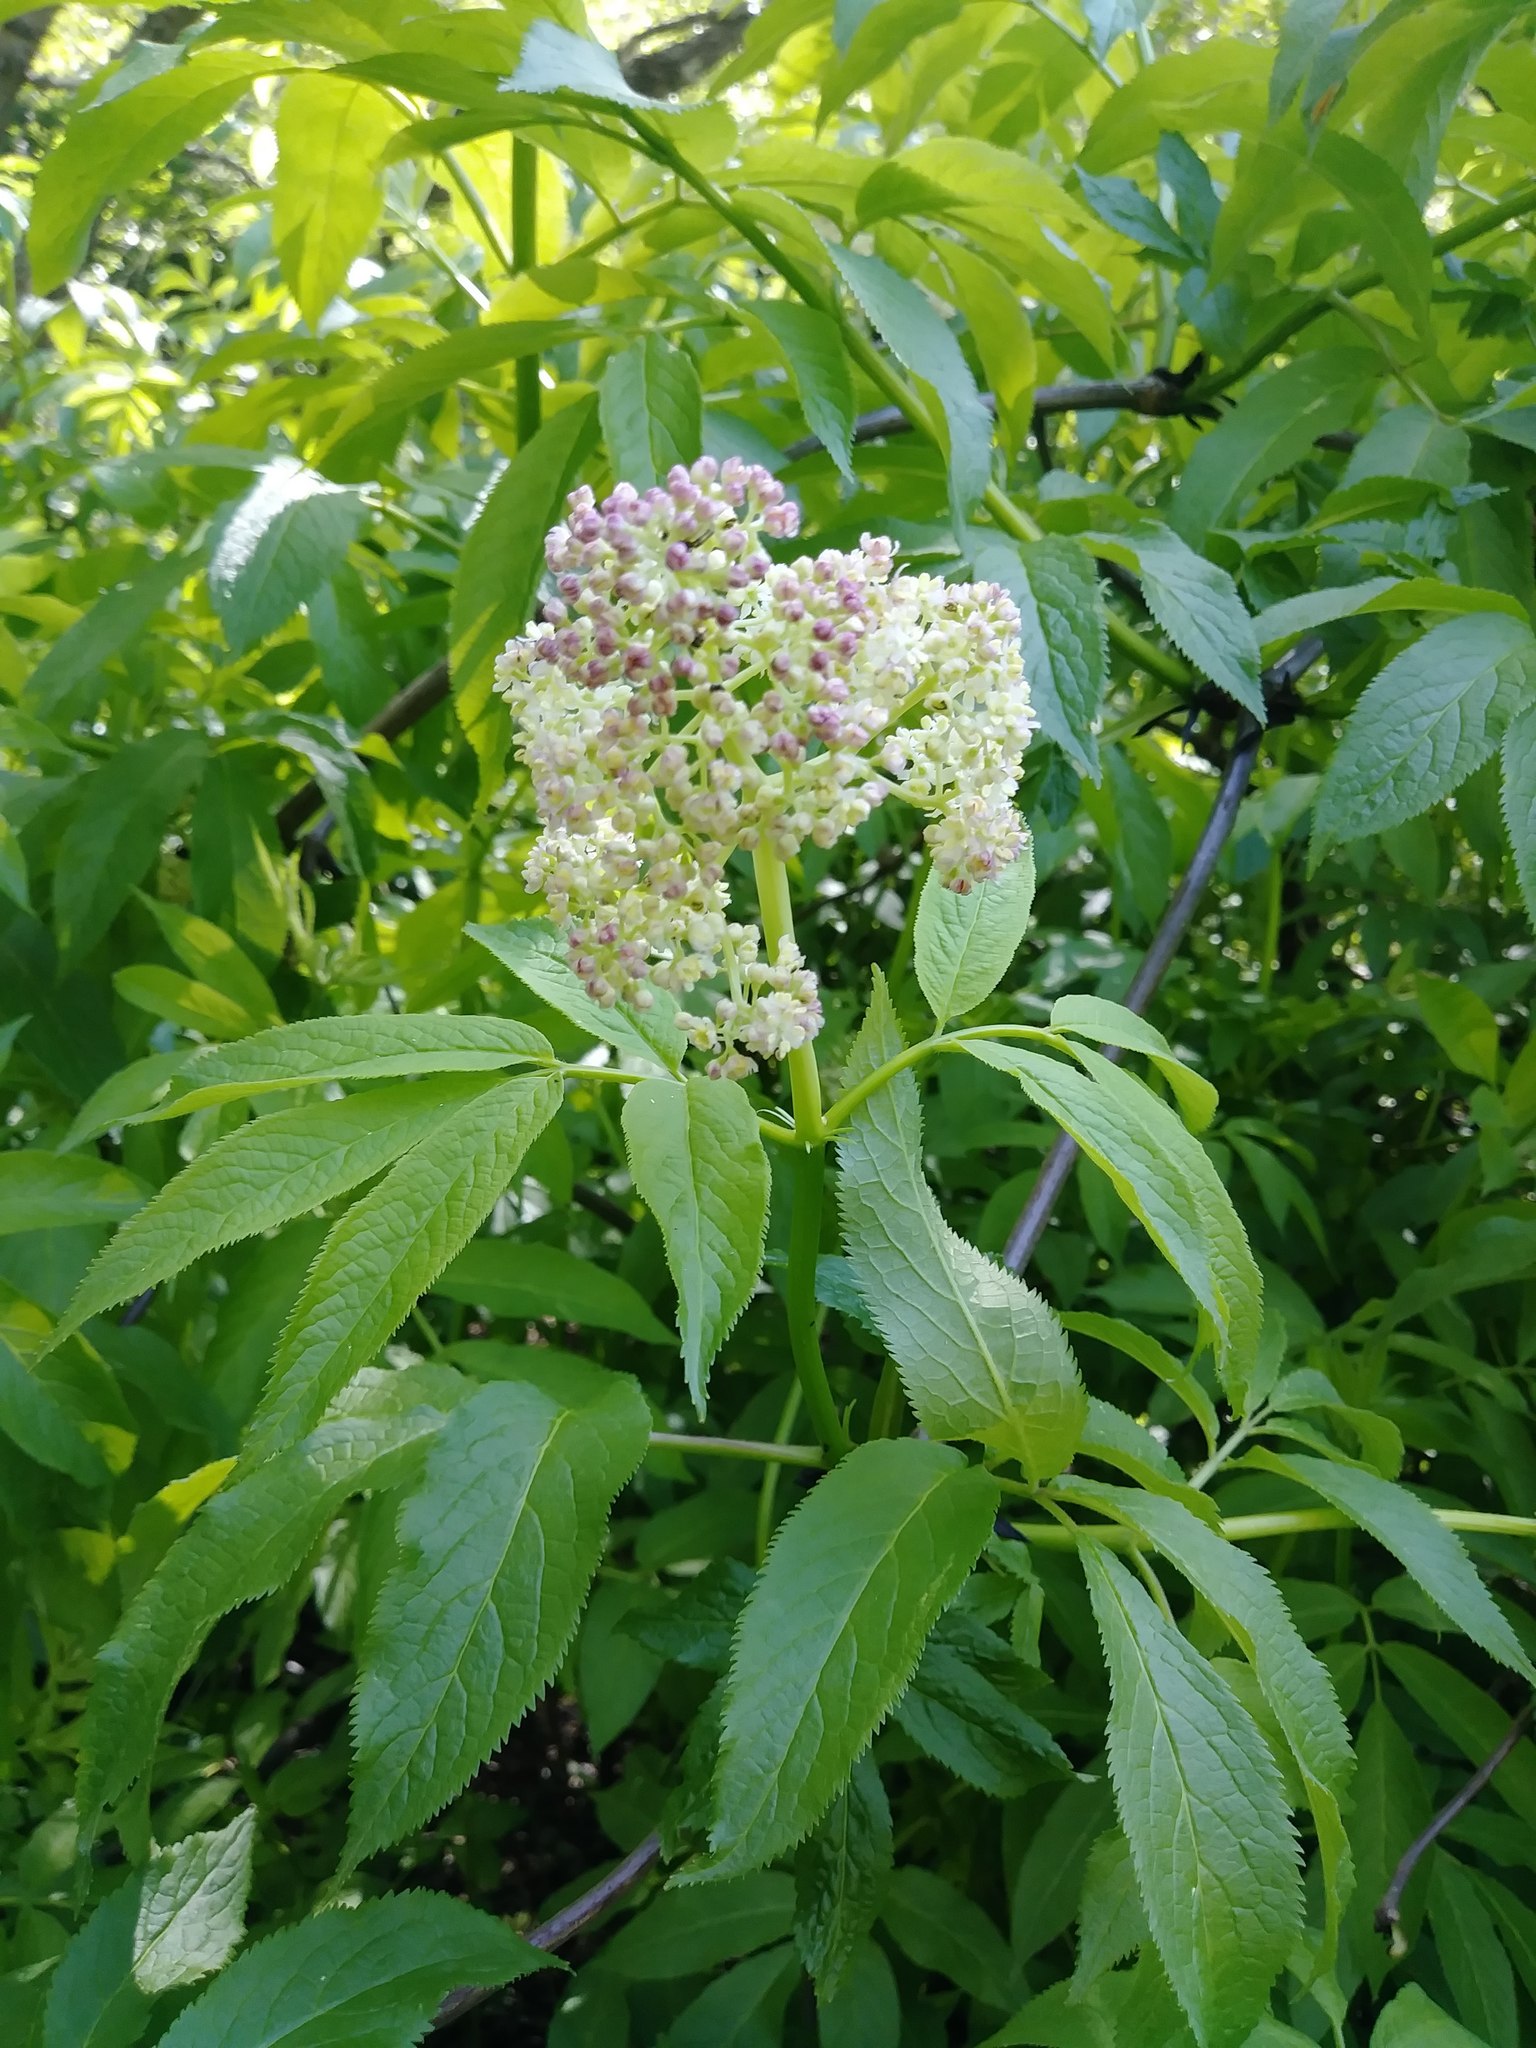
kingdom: Plantae
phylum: Tracheophyta
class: Magnoliopsida
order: Dipsacales
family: Viburnaceae
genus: Sambucus
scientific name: Sambucus racemosa
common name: Red-berried elder
